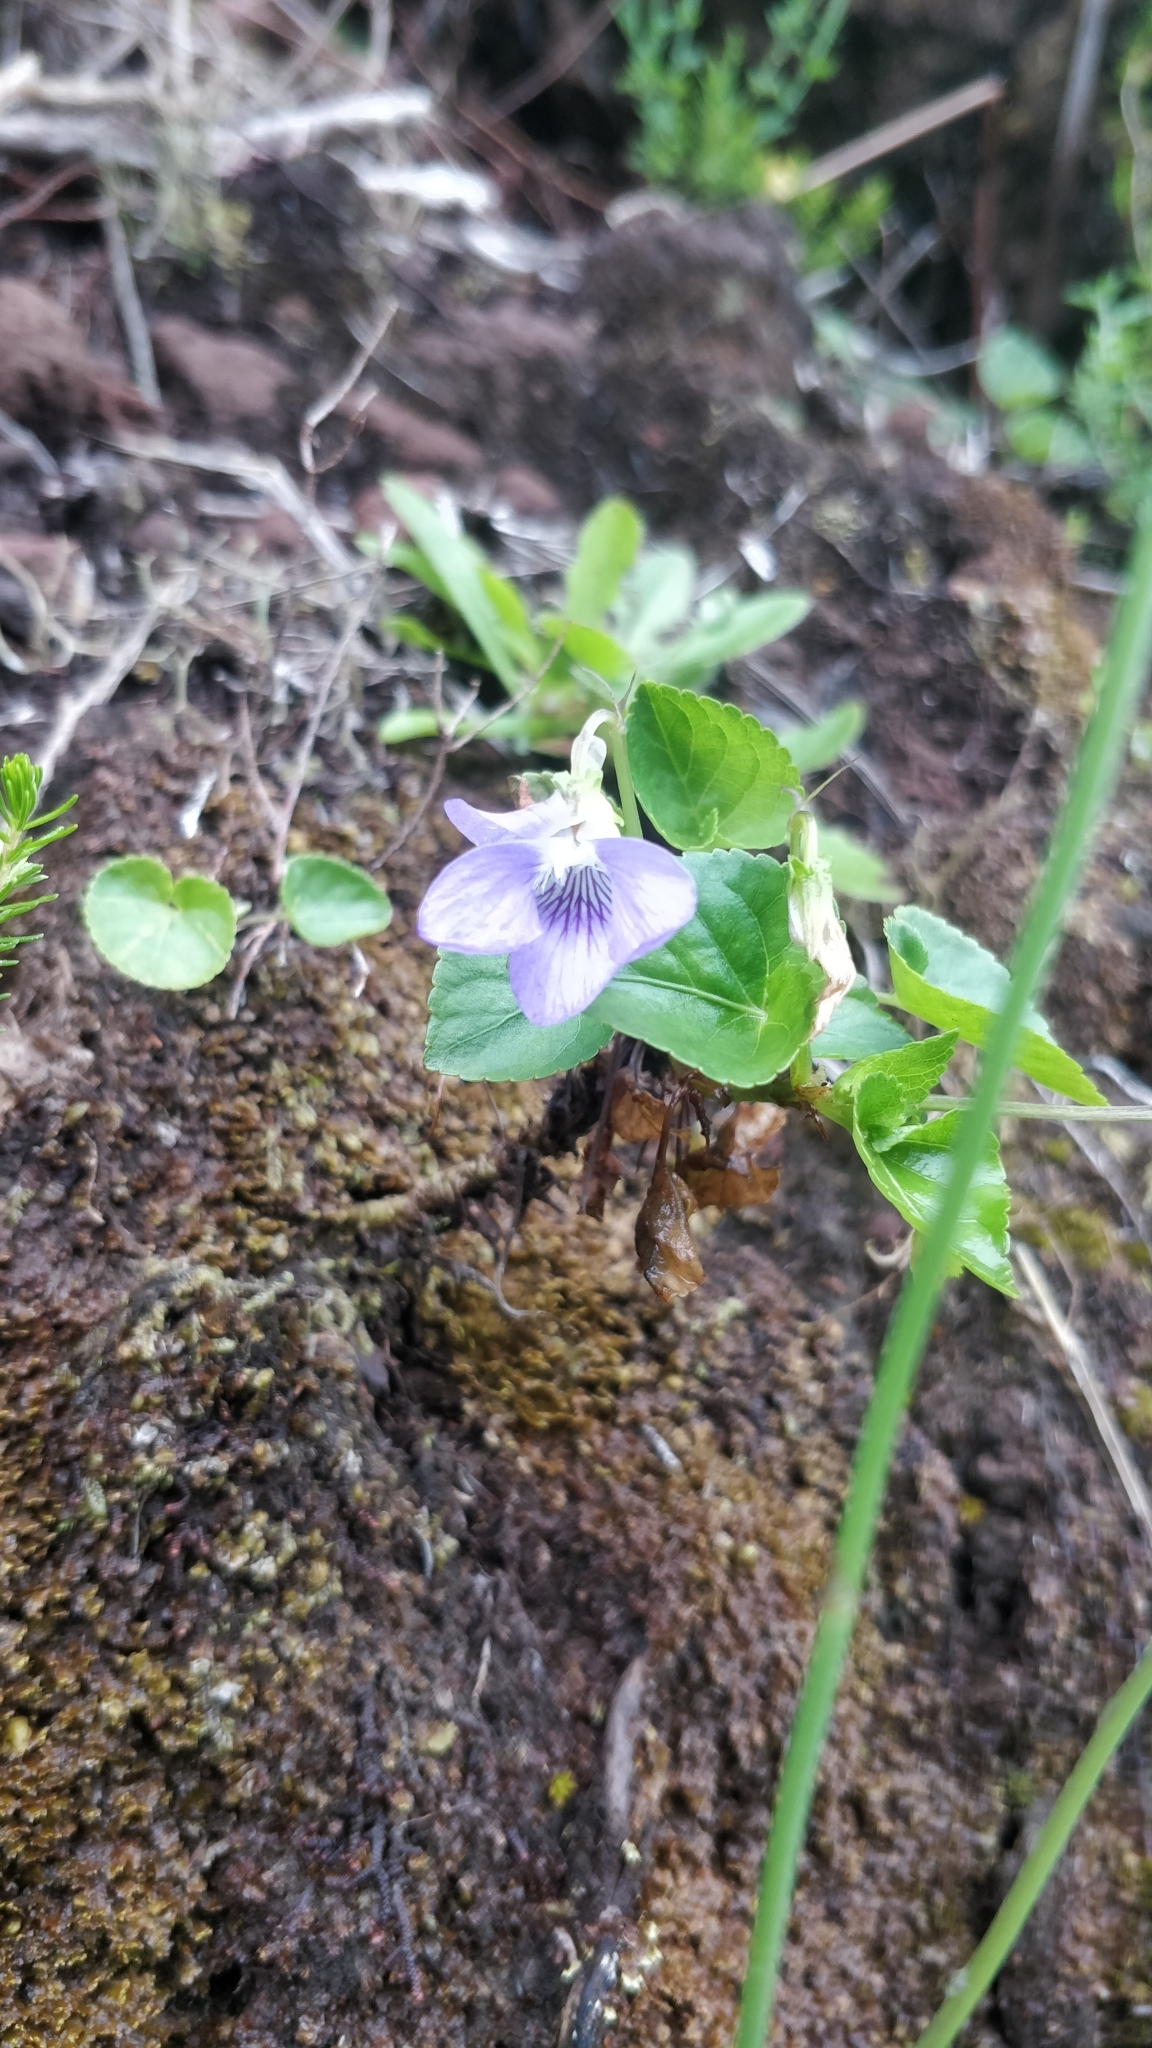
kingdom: Plantae
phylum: Tracheophyta
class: Magnoliopsida
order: Malpighiales
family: Violaceae
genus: Viola
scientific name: Viola riviniana
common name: Common dog-violet
